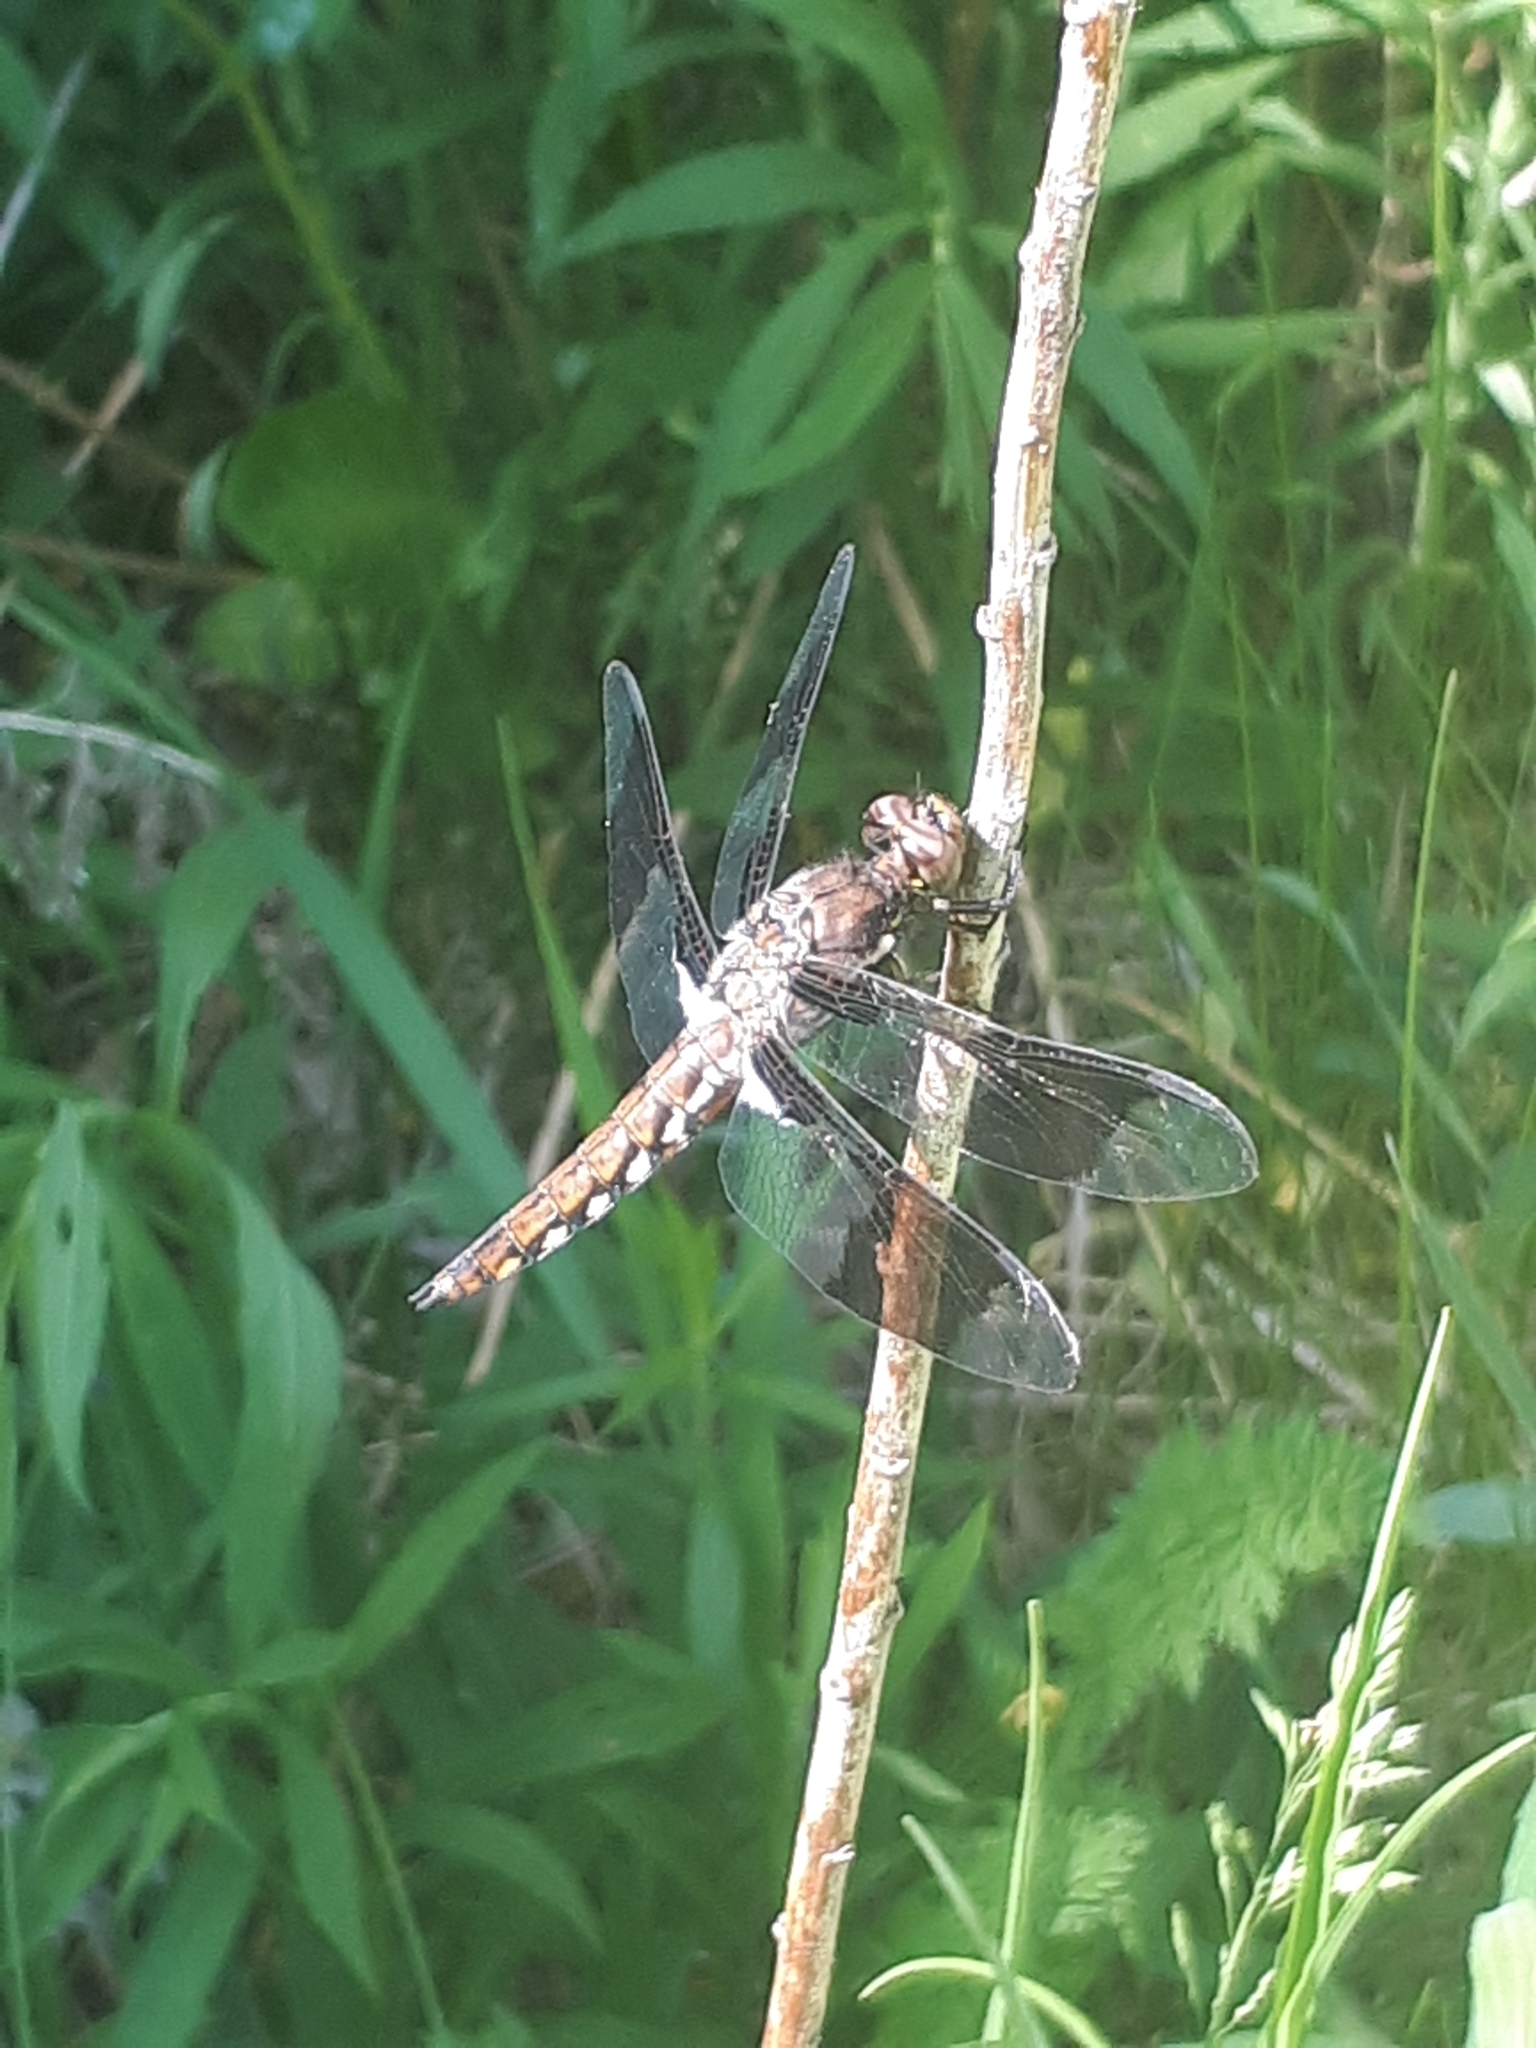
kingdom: Animalia
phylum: Arthropoda
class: Insecta
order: Odonata
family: Libellulidae
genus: Plathemis
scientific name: Plathemis lydia
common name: Common whitetail
